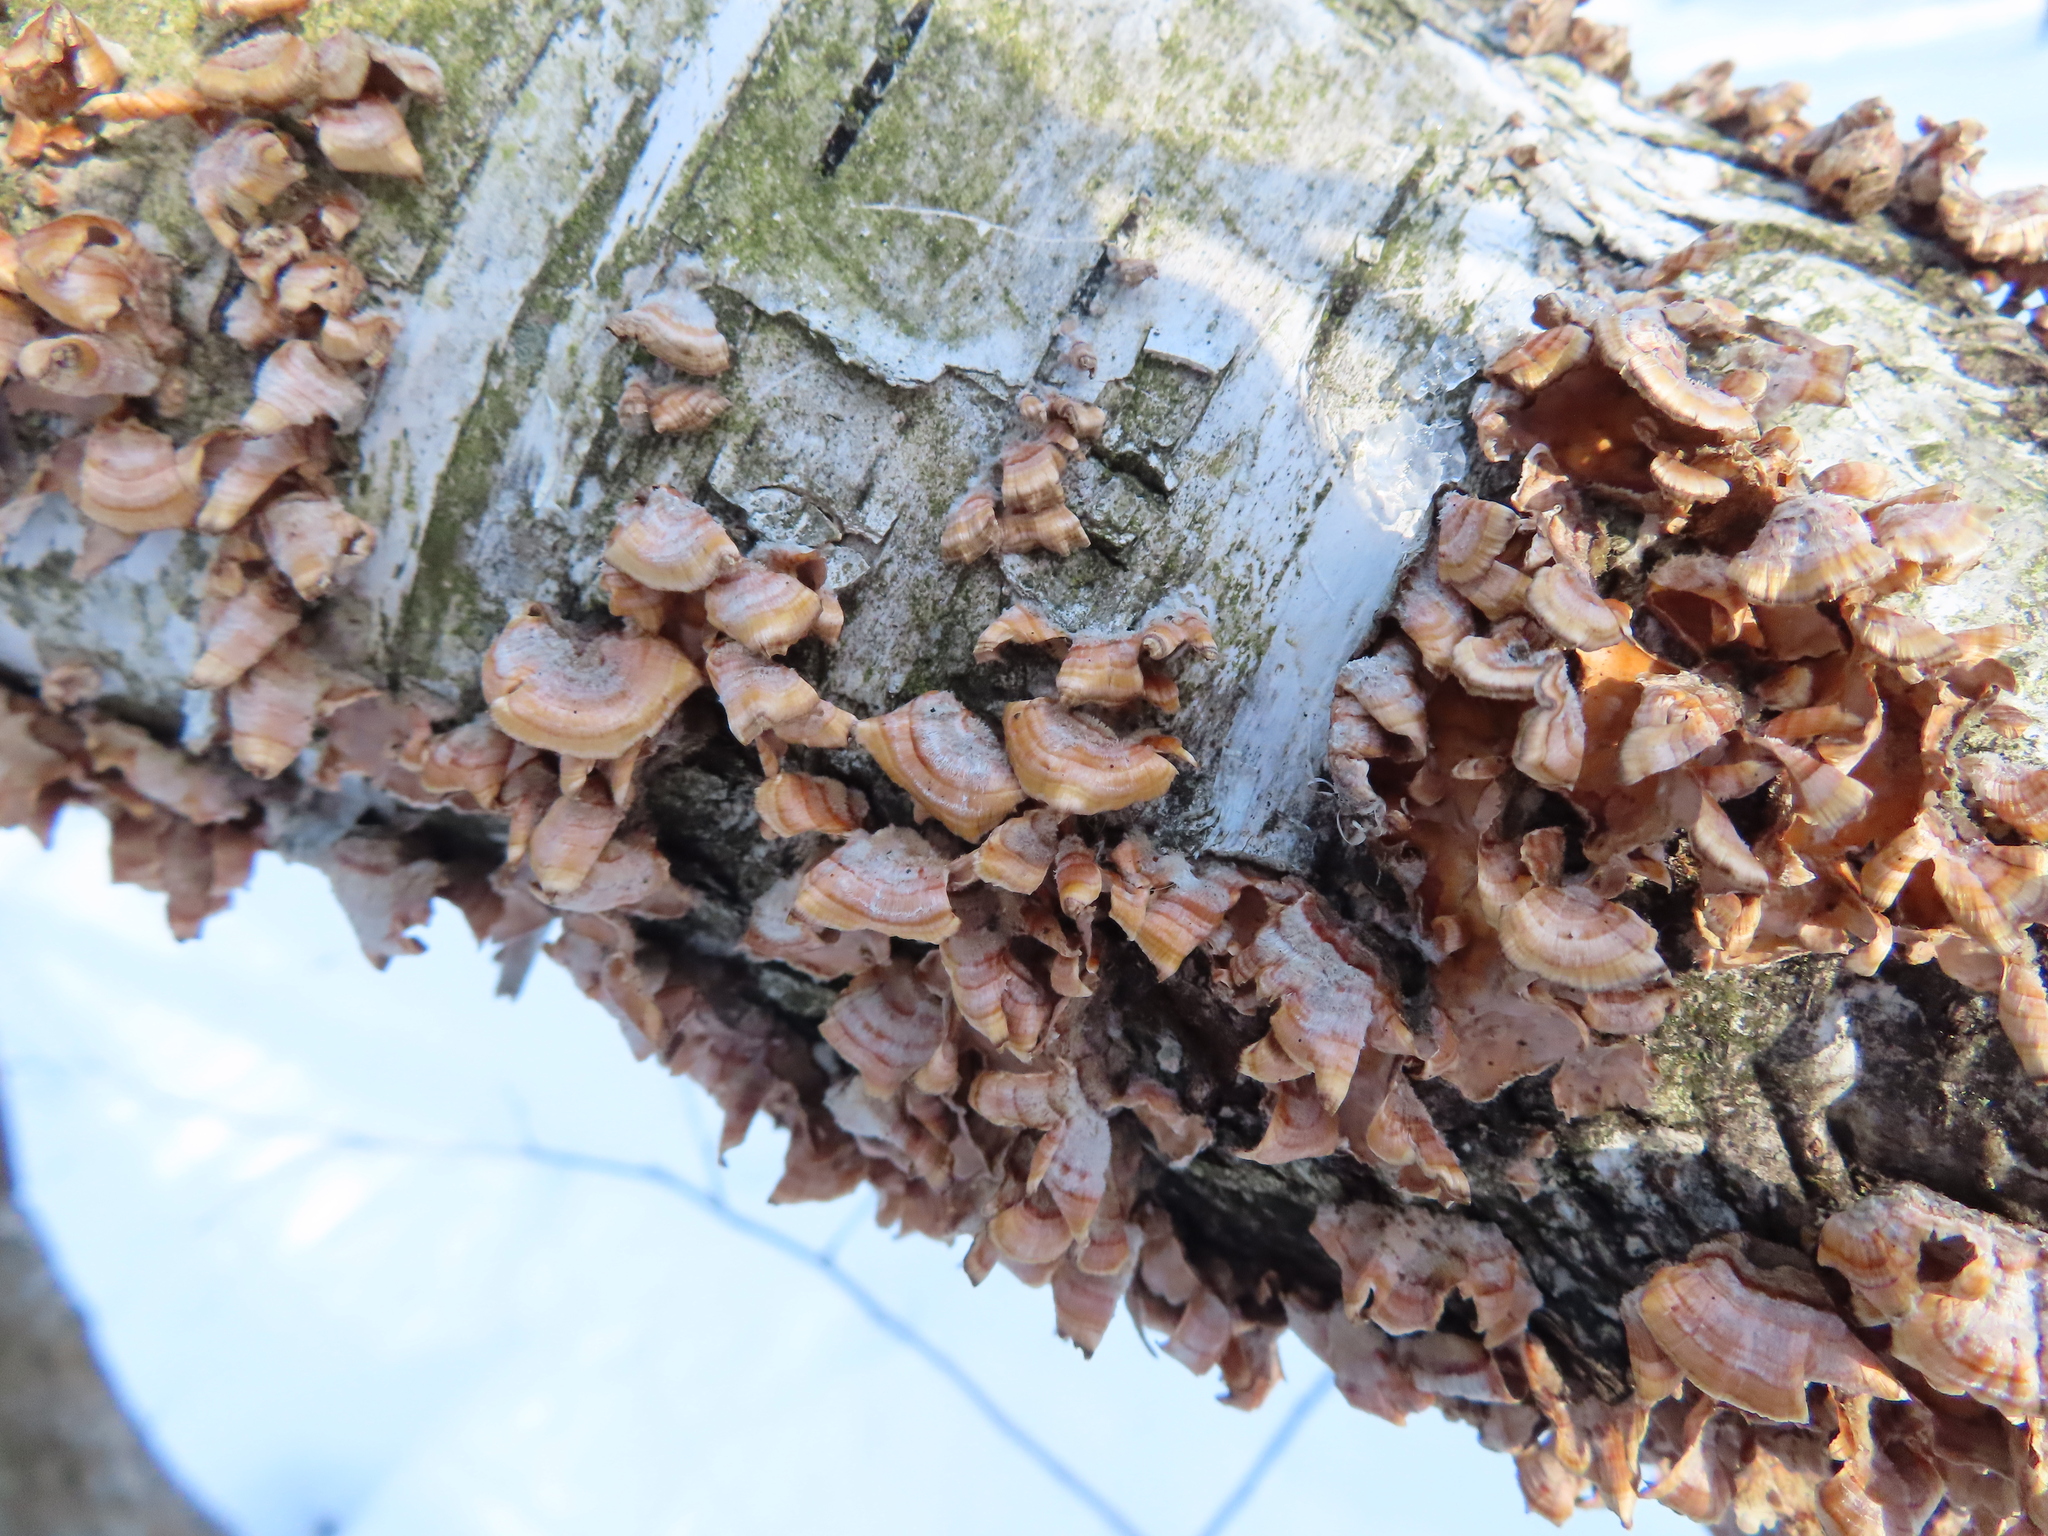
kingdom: Fungi
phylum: Basidiomycota
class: Agaricomycetes
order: Russulales
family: Stereaceae
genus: Stereum
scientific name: Stereum complicatum
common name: Crowded parchment
